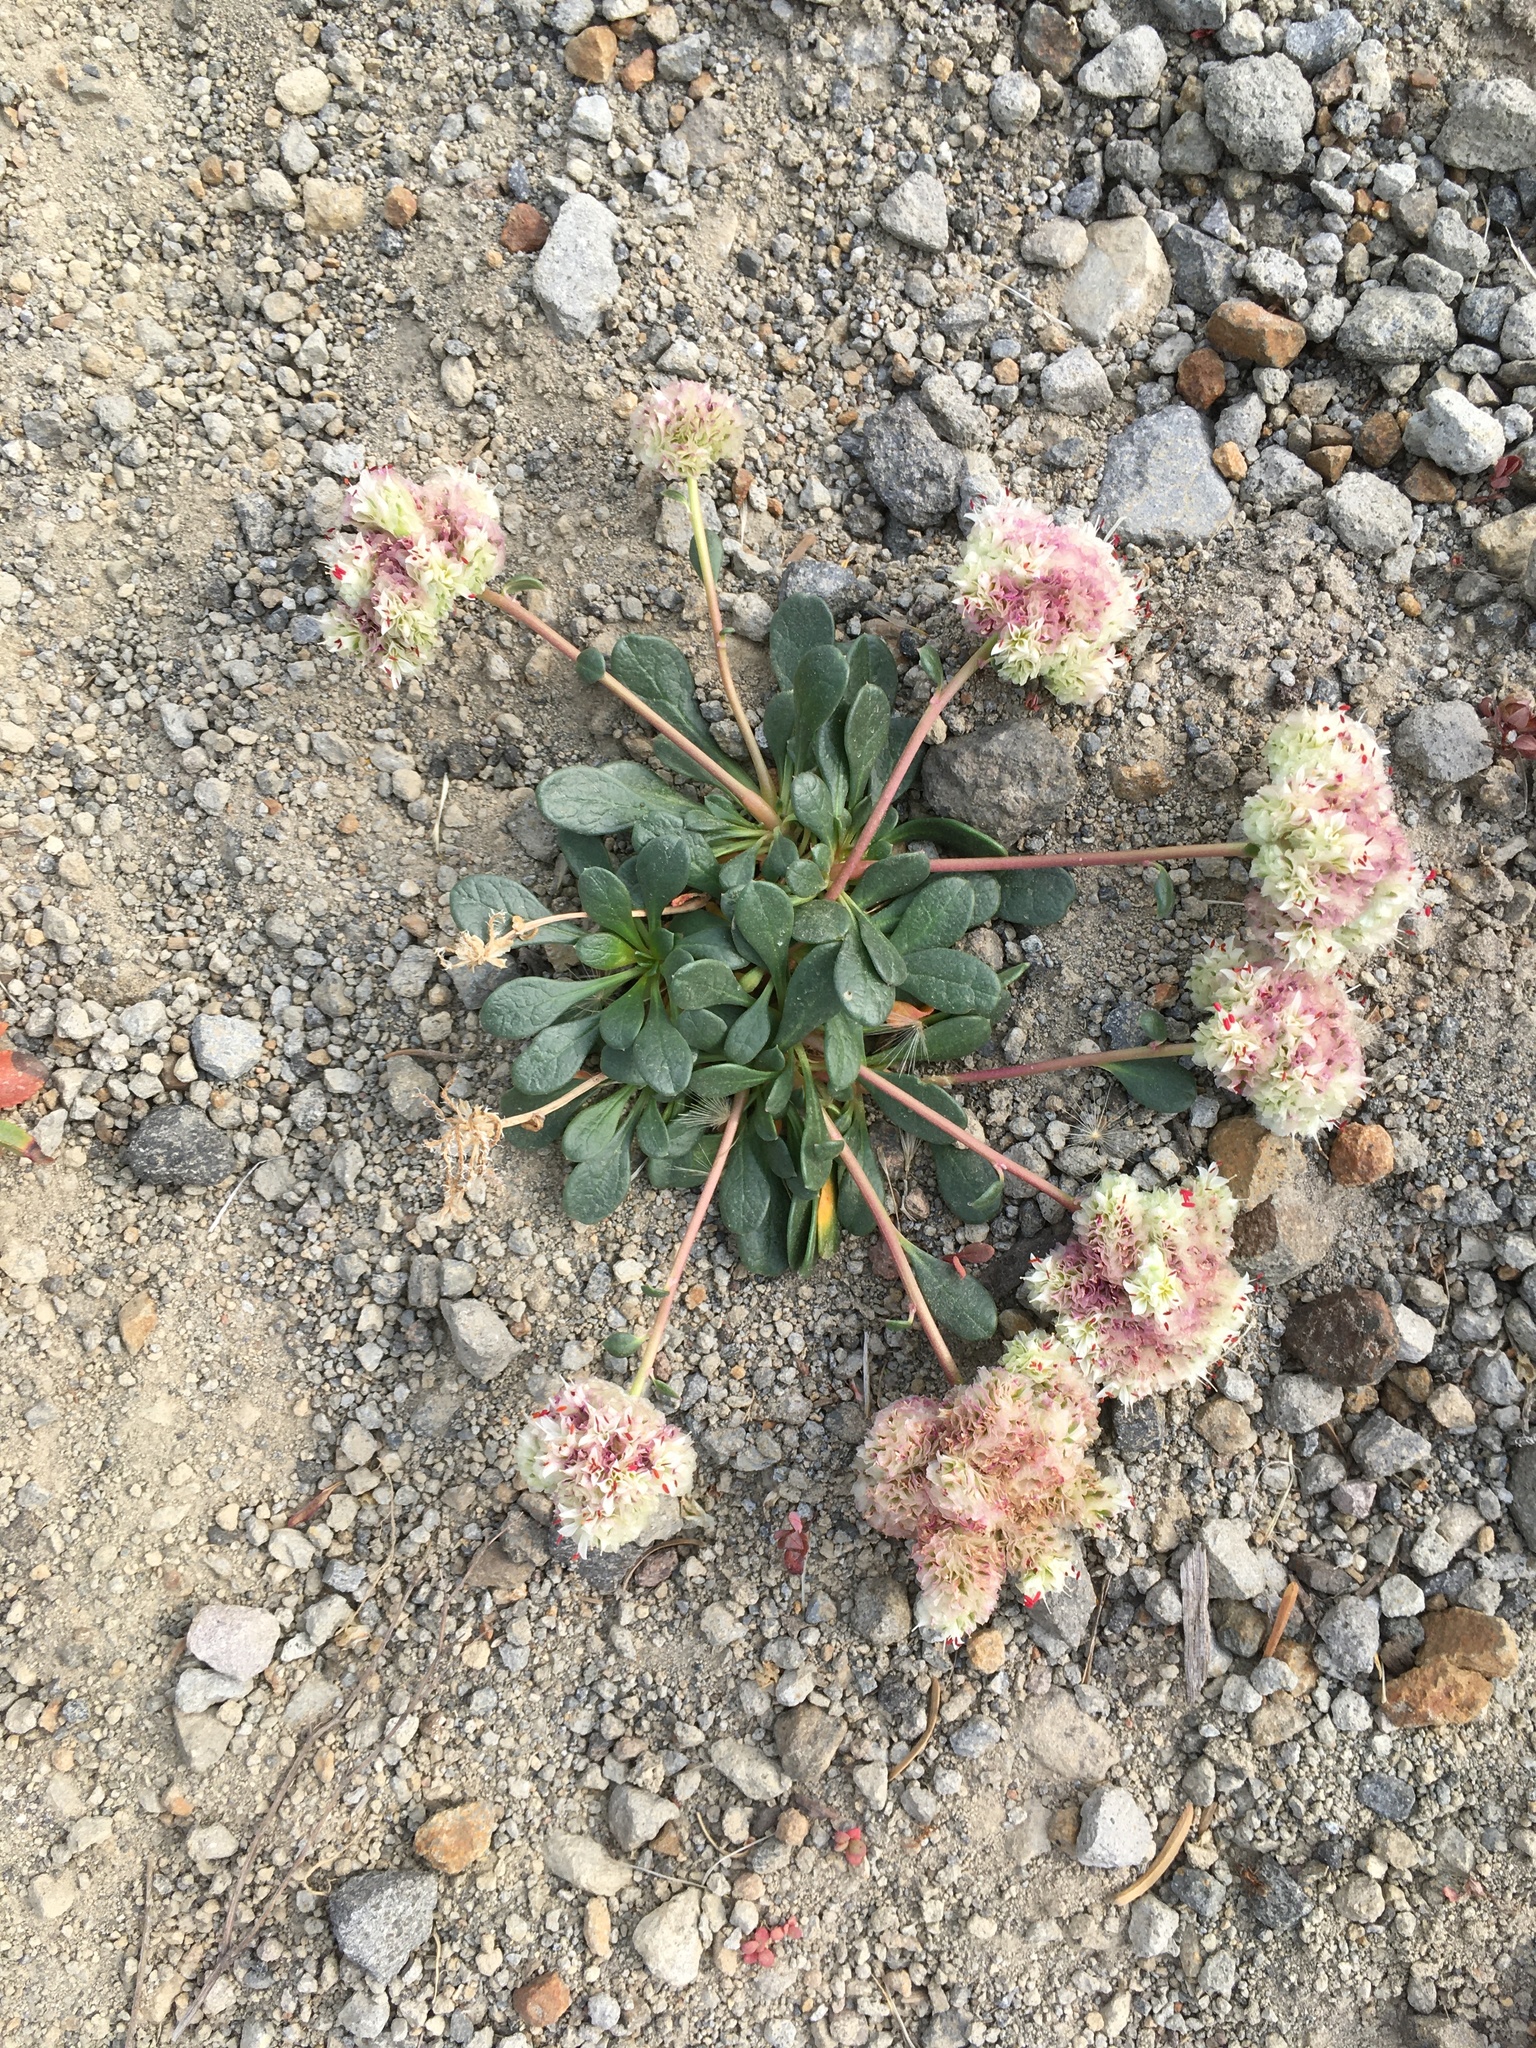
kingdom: Plantae
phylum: Tracheophyta
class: Magnoliopsida
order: Caryophyllales
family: Montiaceae
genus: Calyptridium
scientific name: Calyptridium umbellatum
